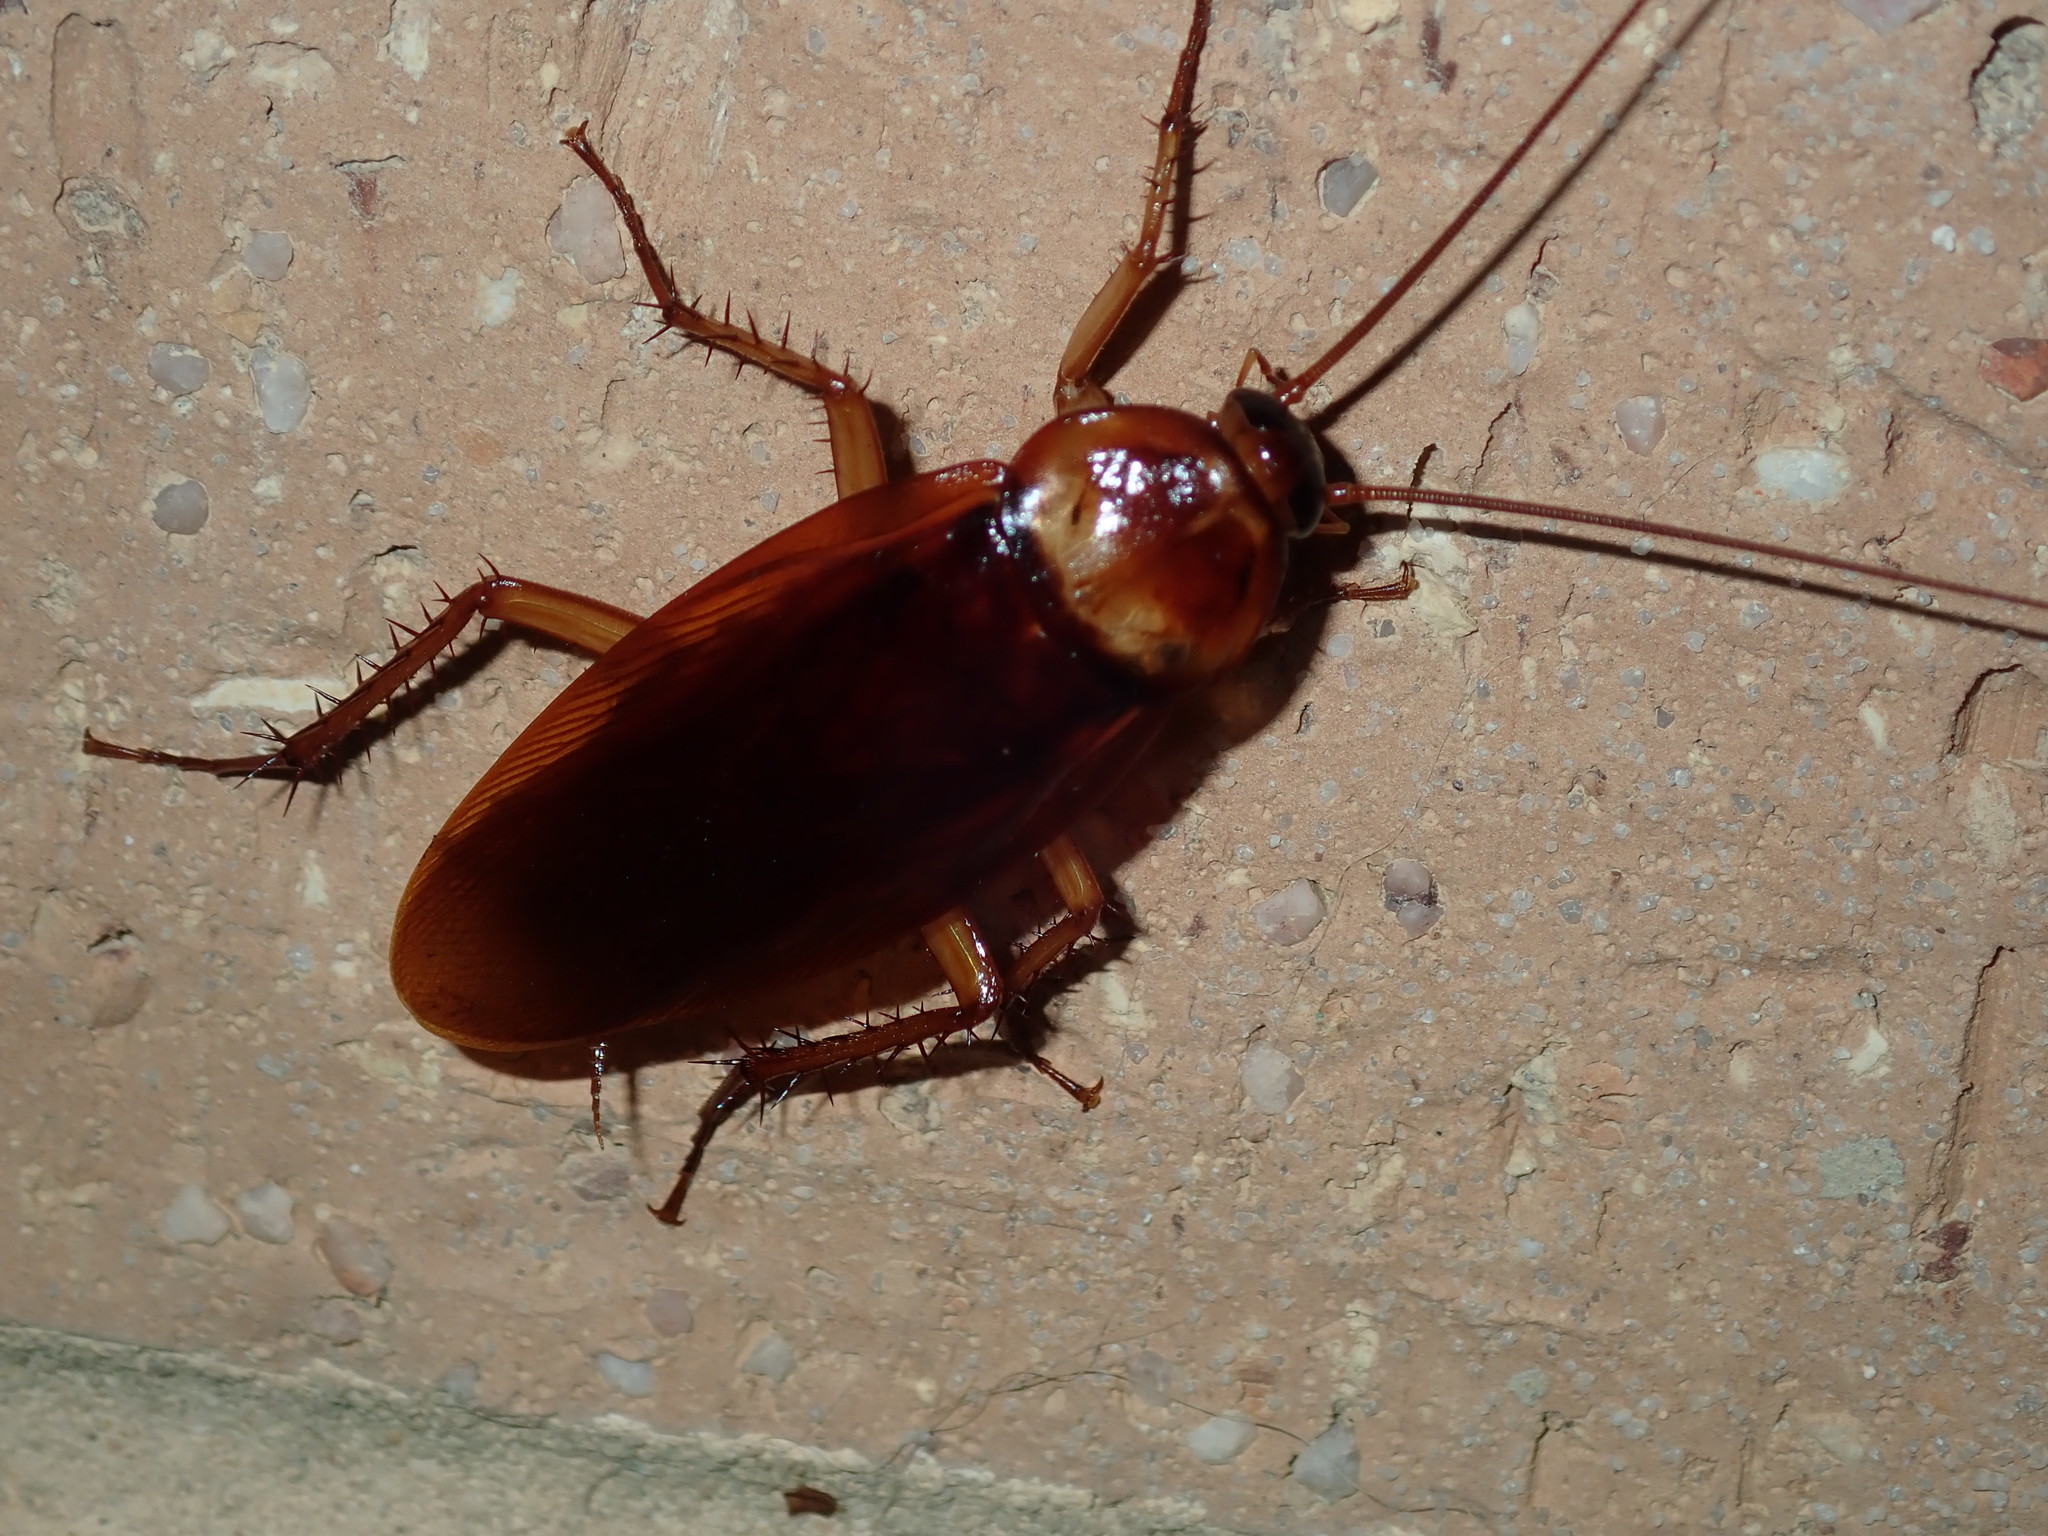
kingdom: Animalia
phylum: Arthropoda
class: Insecta
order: Blattodea
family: Blattidae
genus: Periplaneta
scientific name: Periplaneta americana
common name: American cockroach
